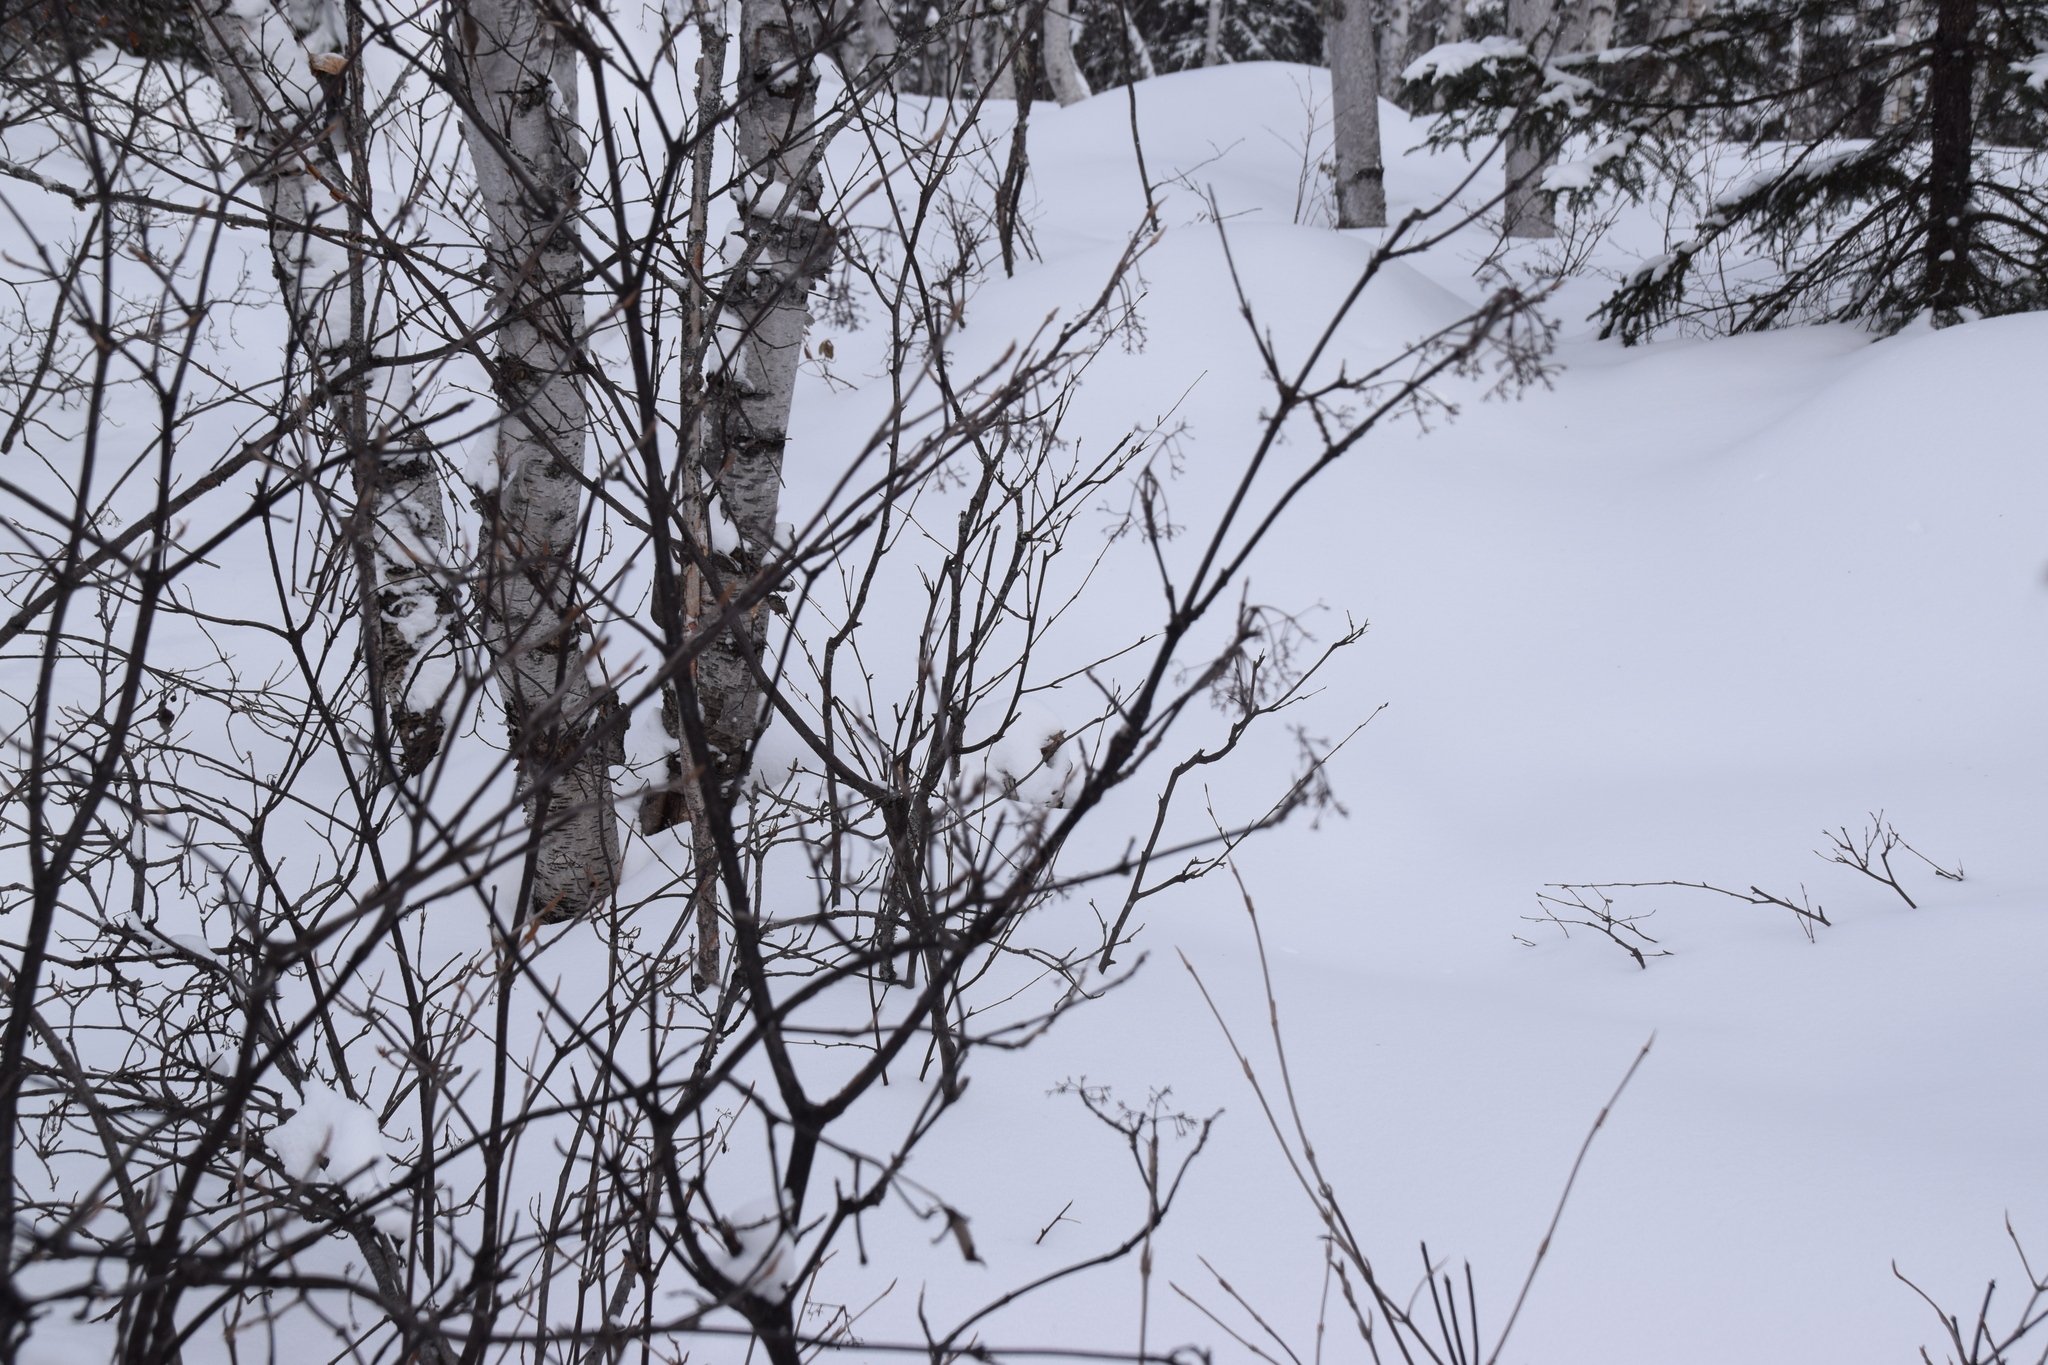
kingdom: Plantae
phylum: Tracheophyta
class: Magnoliopsida
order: Dipsacales
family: Viburnaceae
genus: Viburnum
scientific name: Viburnum cassinoides
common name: Swamp haw
